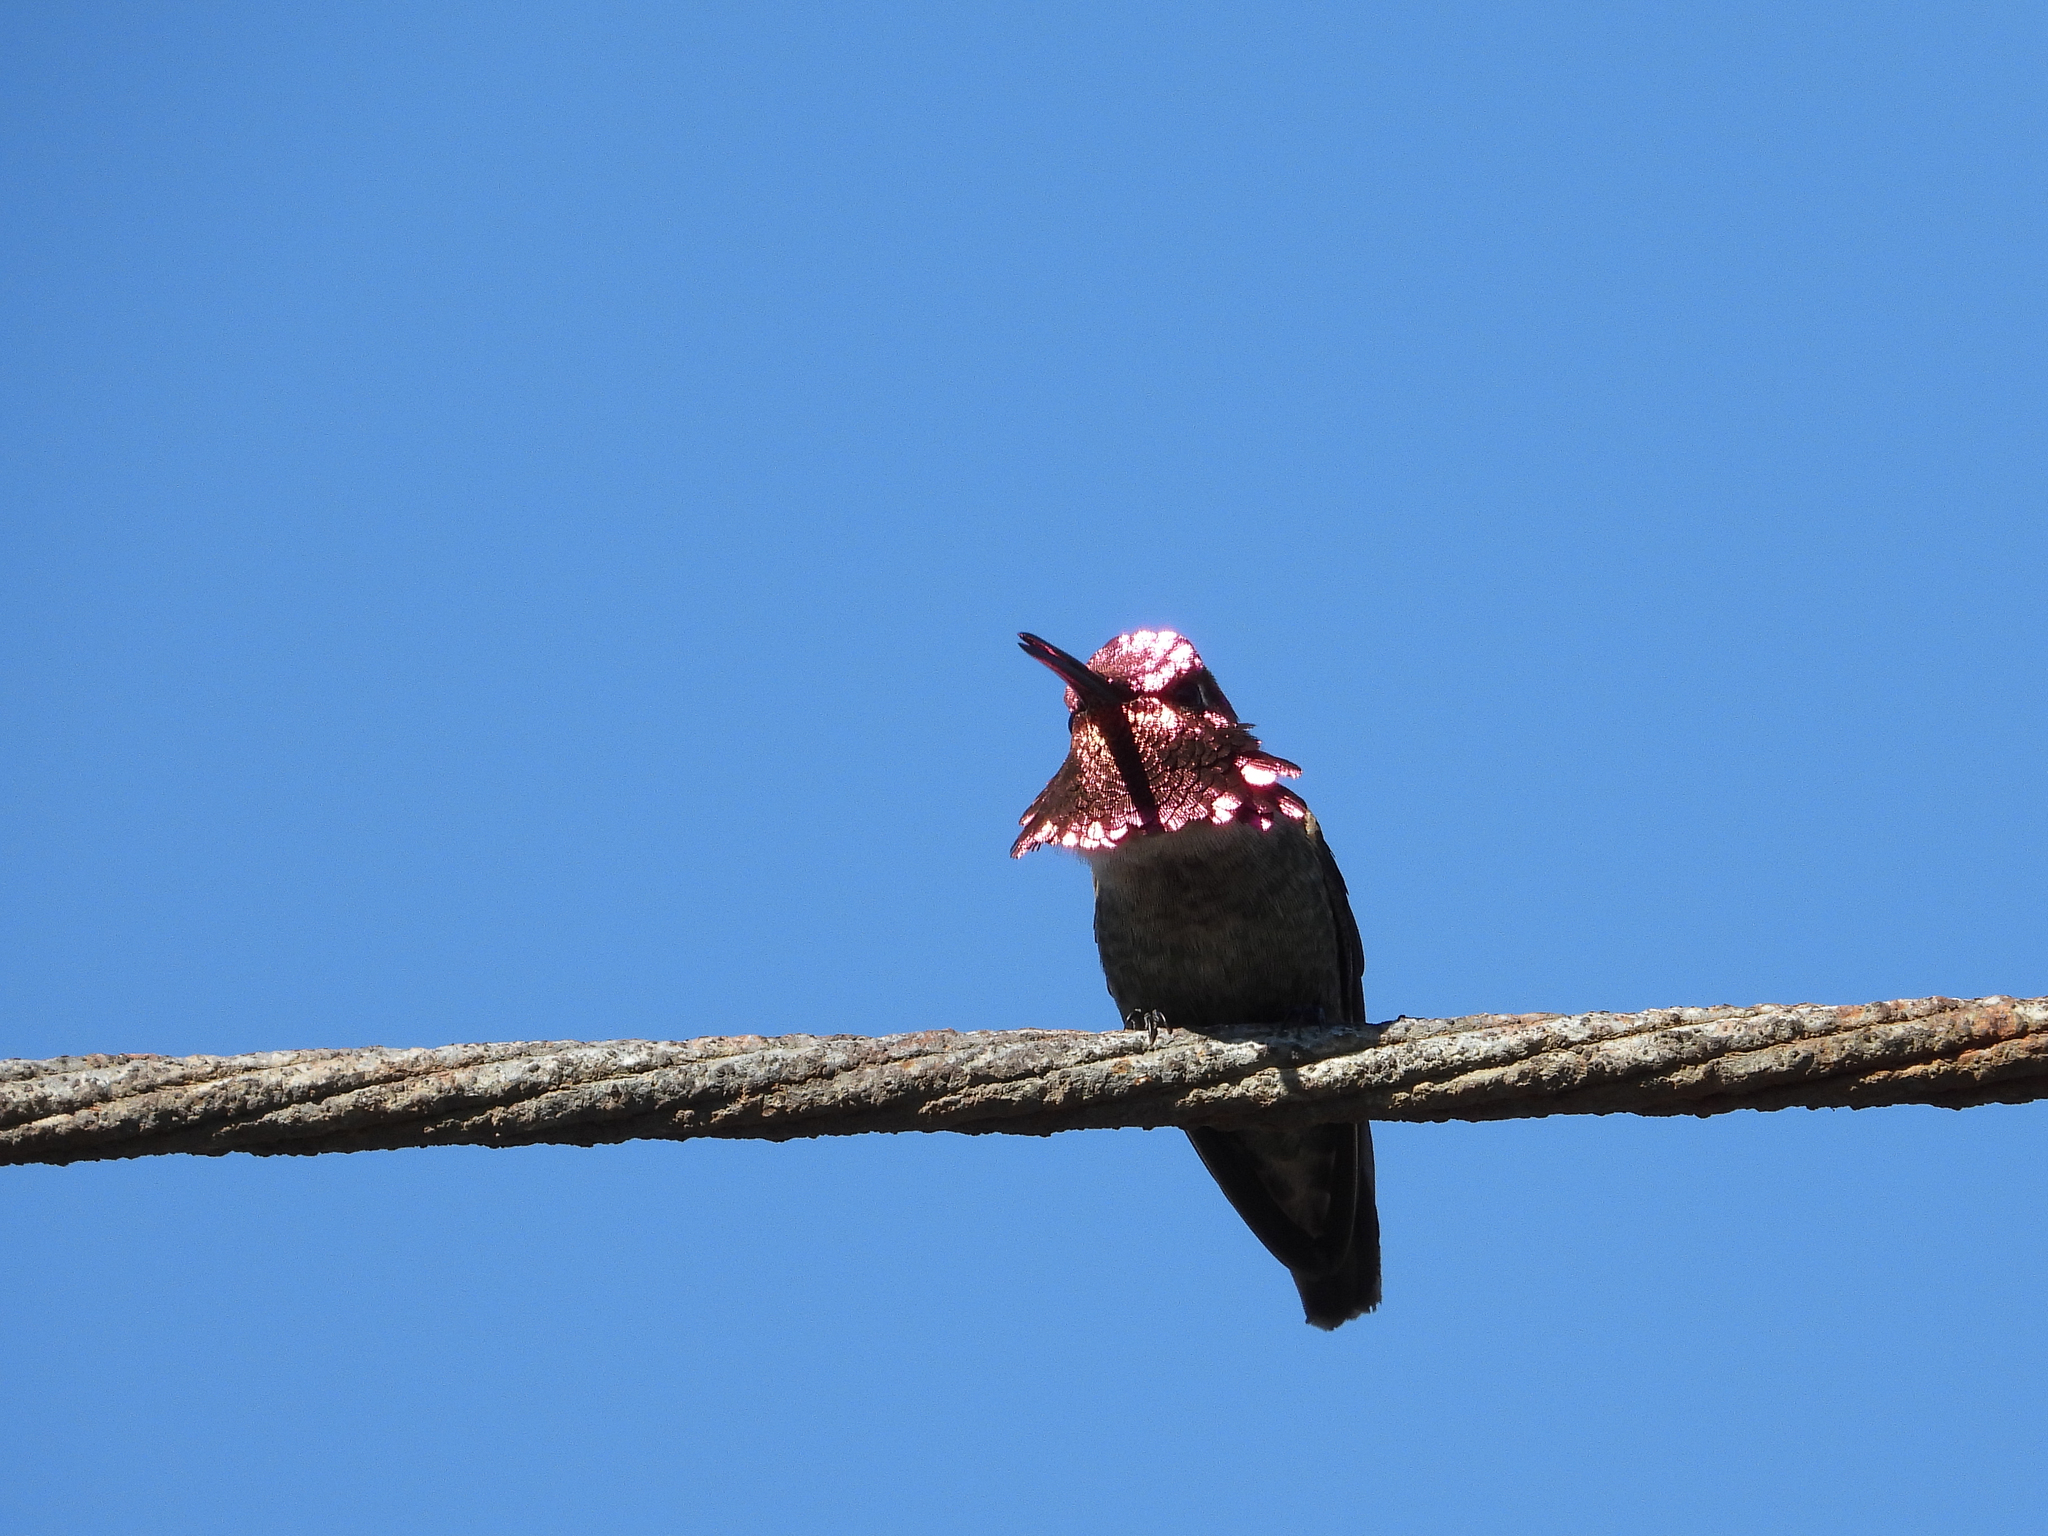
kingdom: Animalia
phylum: Chordata
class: Aves
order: Apodiformes
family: Trochilidae
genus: Calypte
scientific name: Calypte anna
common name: Anna's hummingbird
